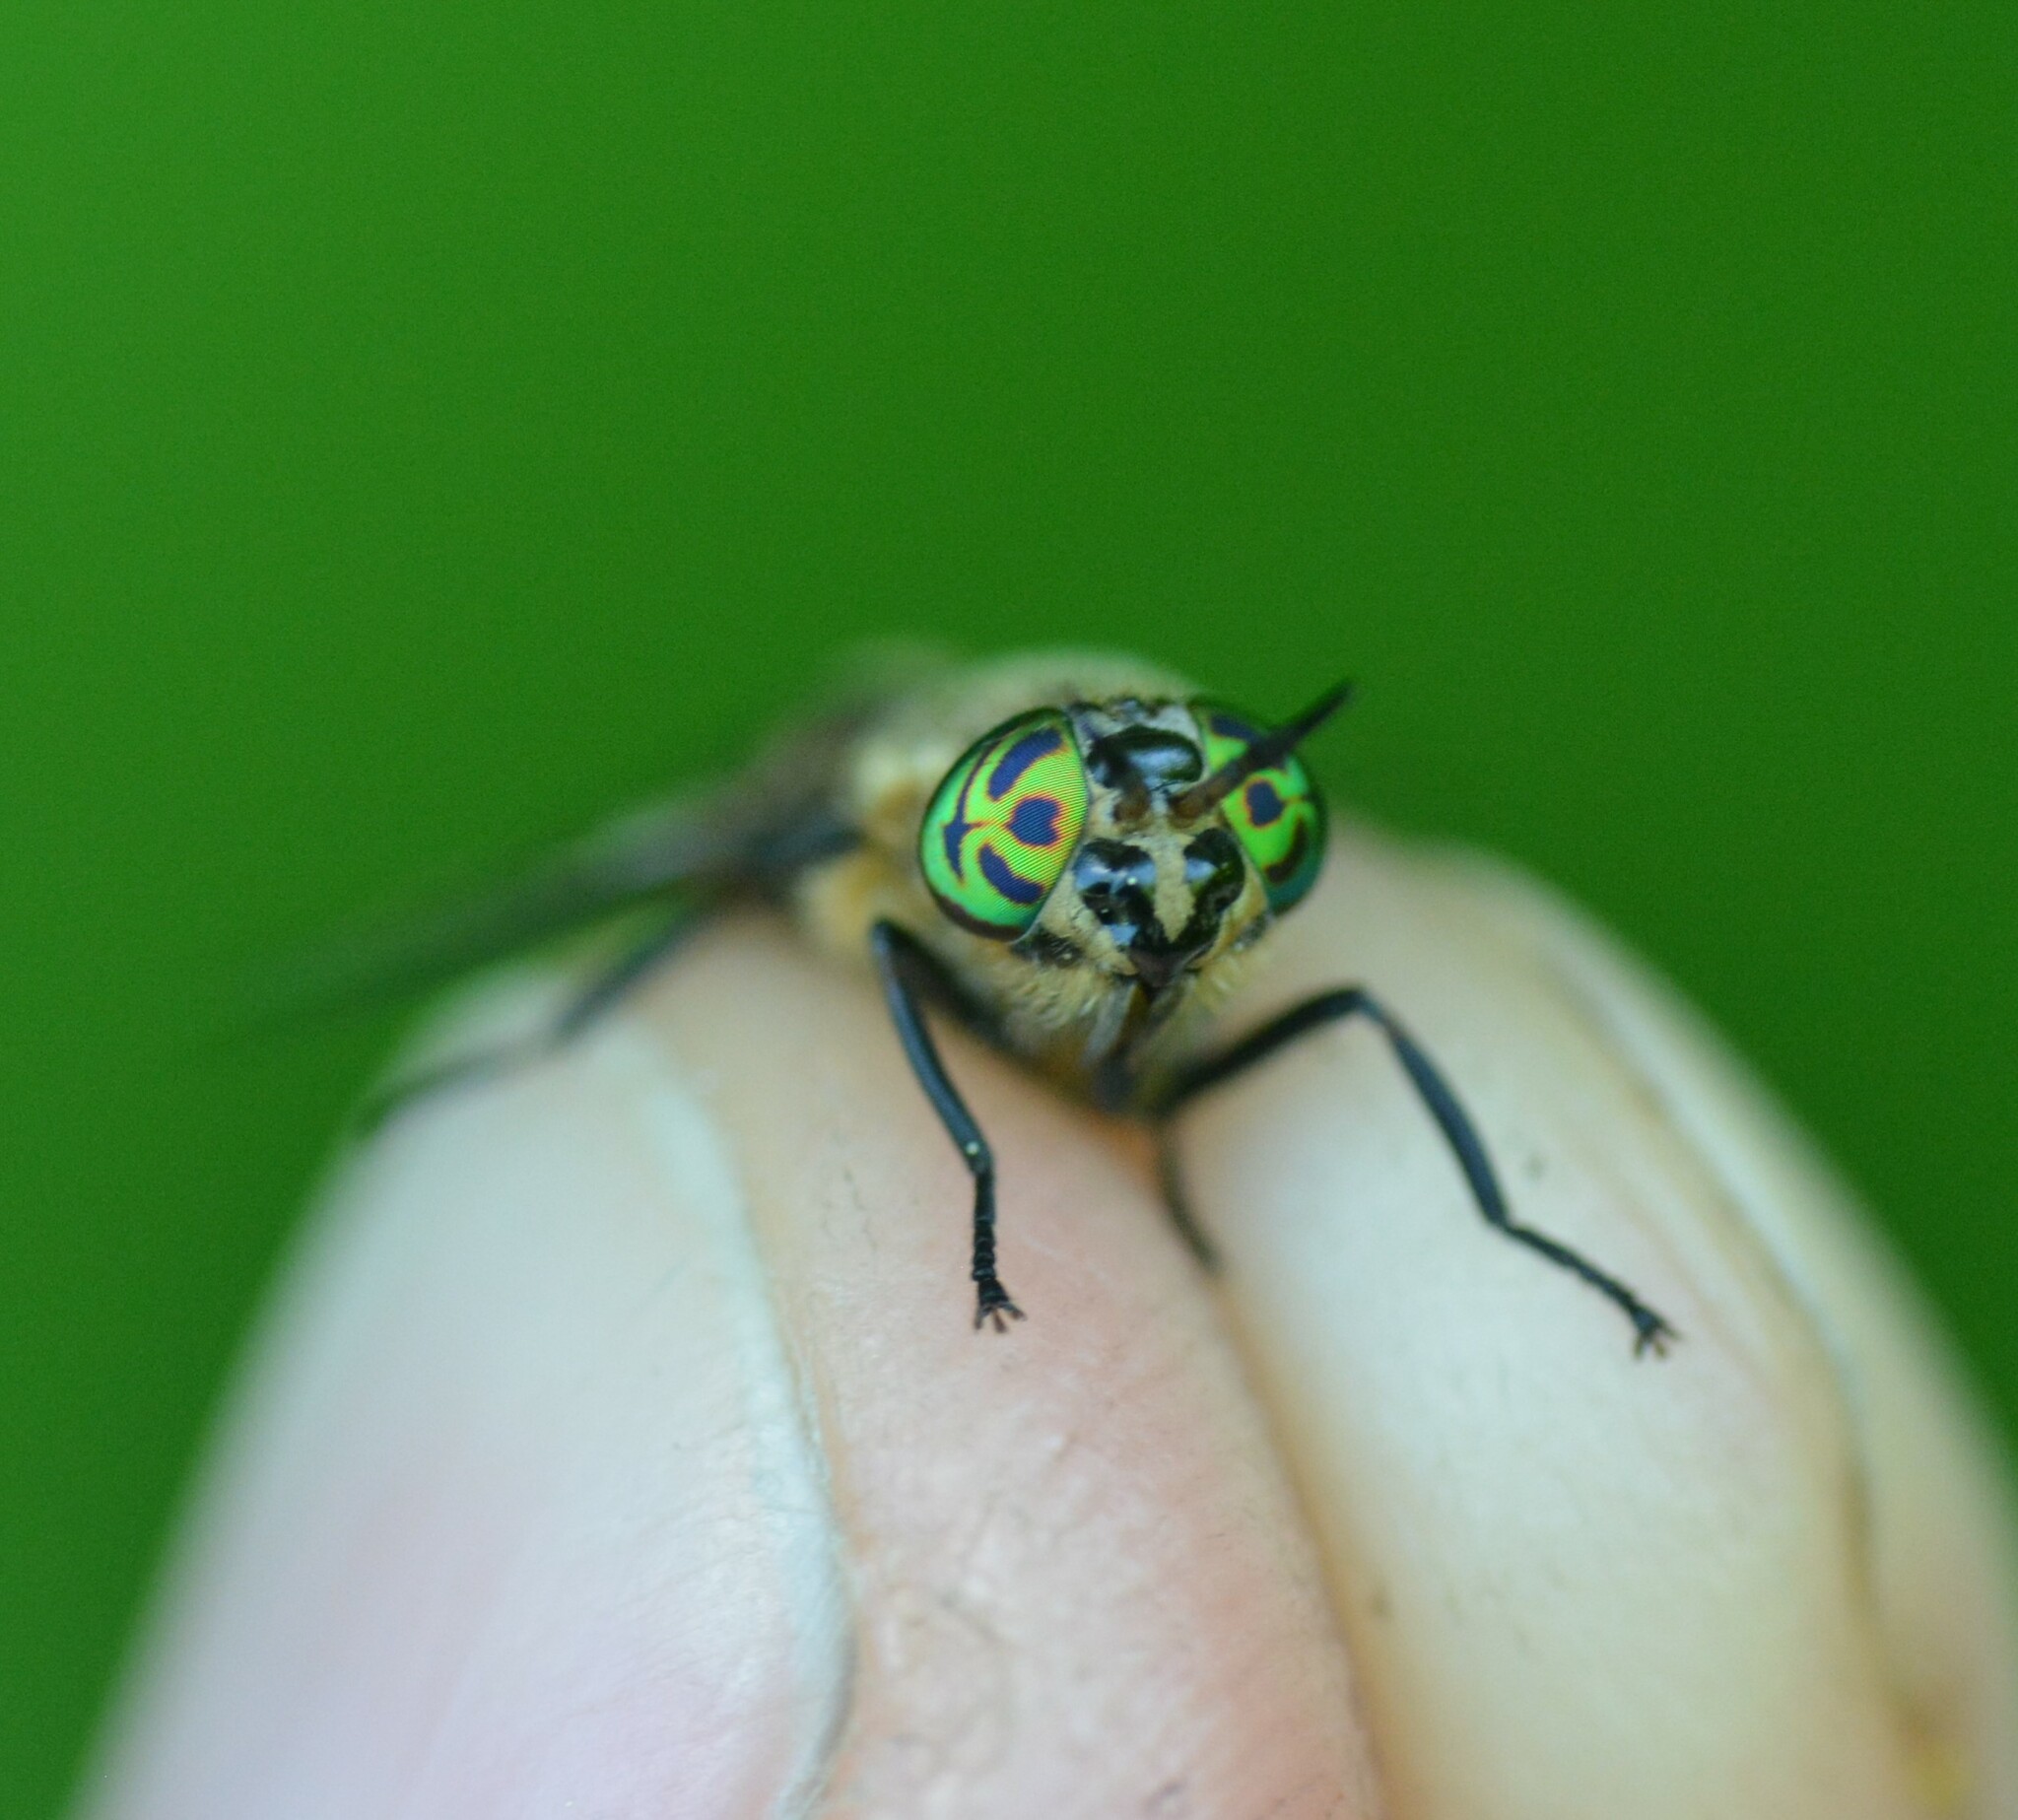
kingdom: Animalia
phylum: Arthropoda
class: Insecta
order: Diptera
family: Tabanidae
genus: Chrysops
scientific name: Chrysops excitans
